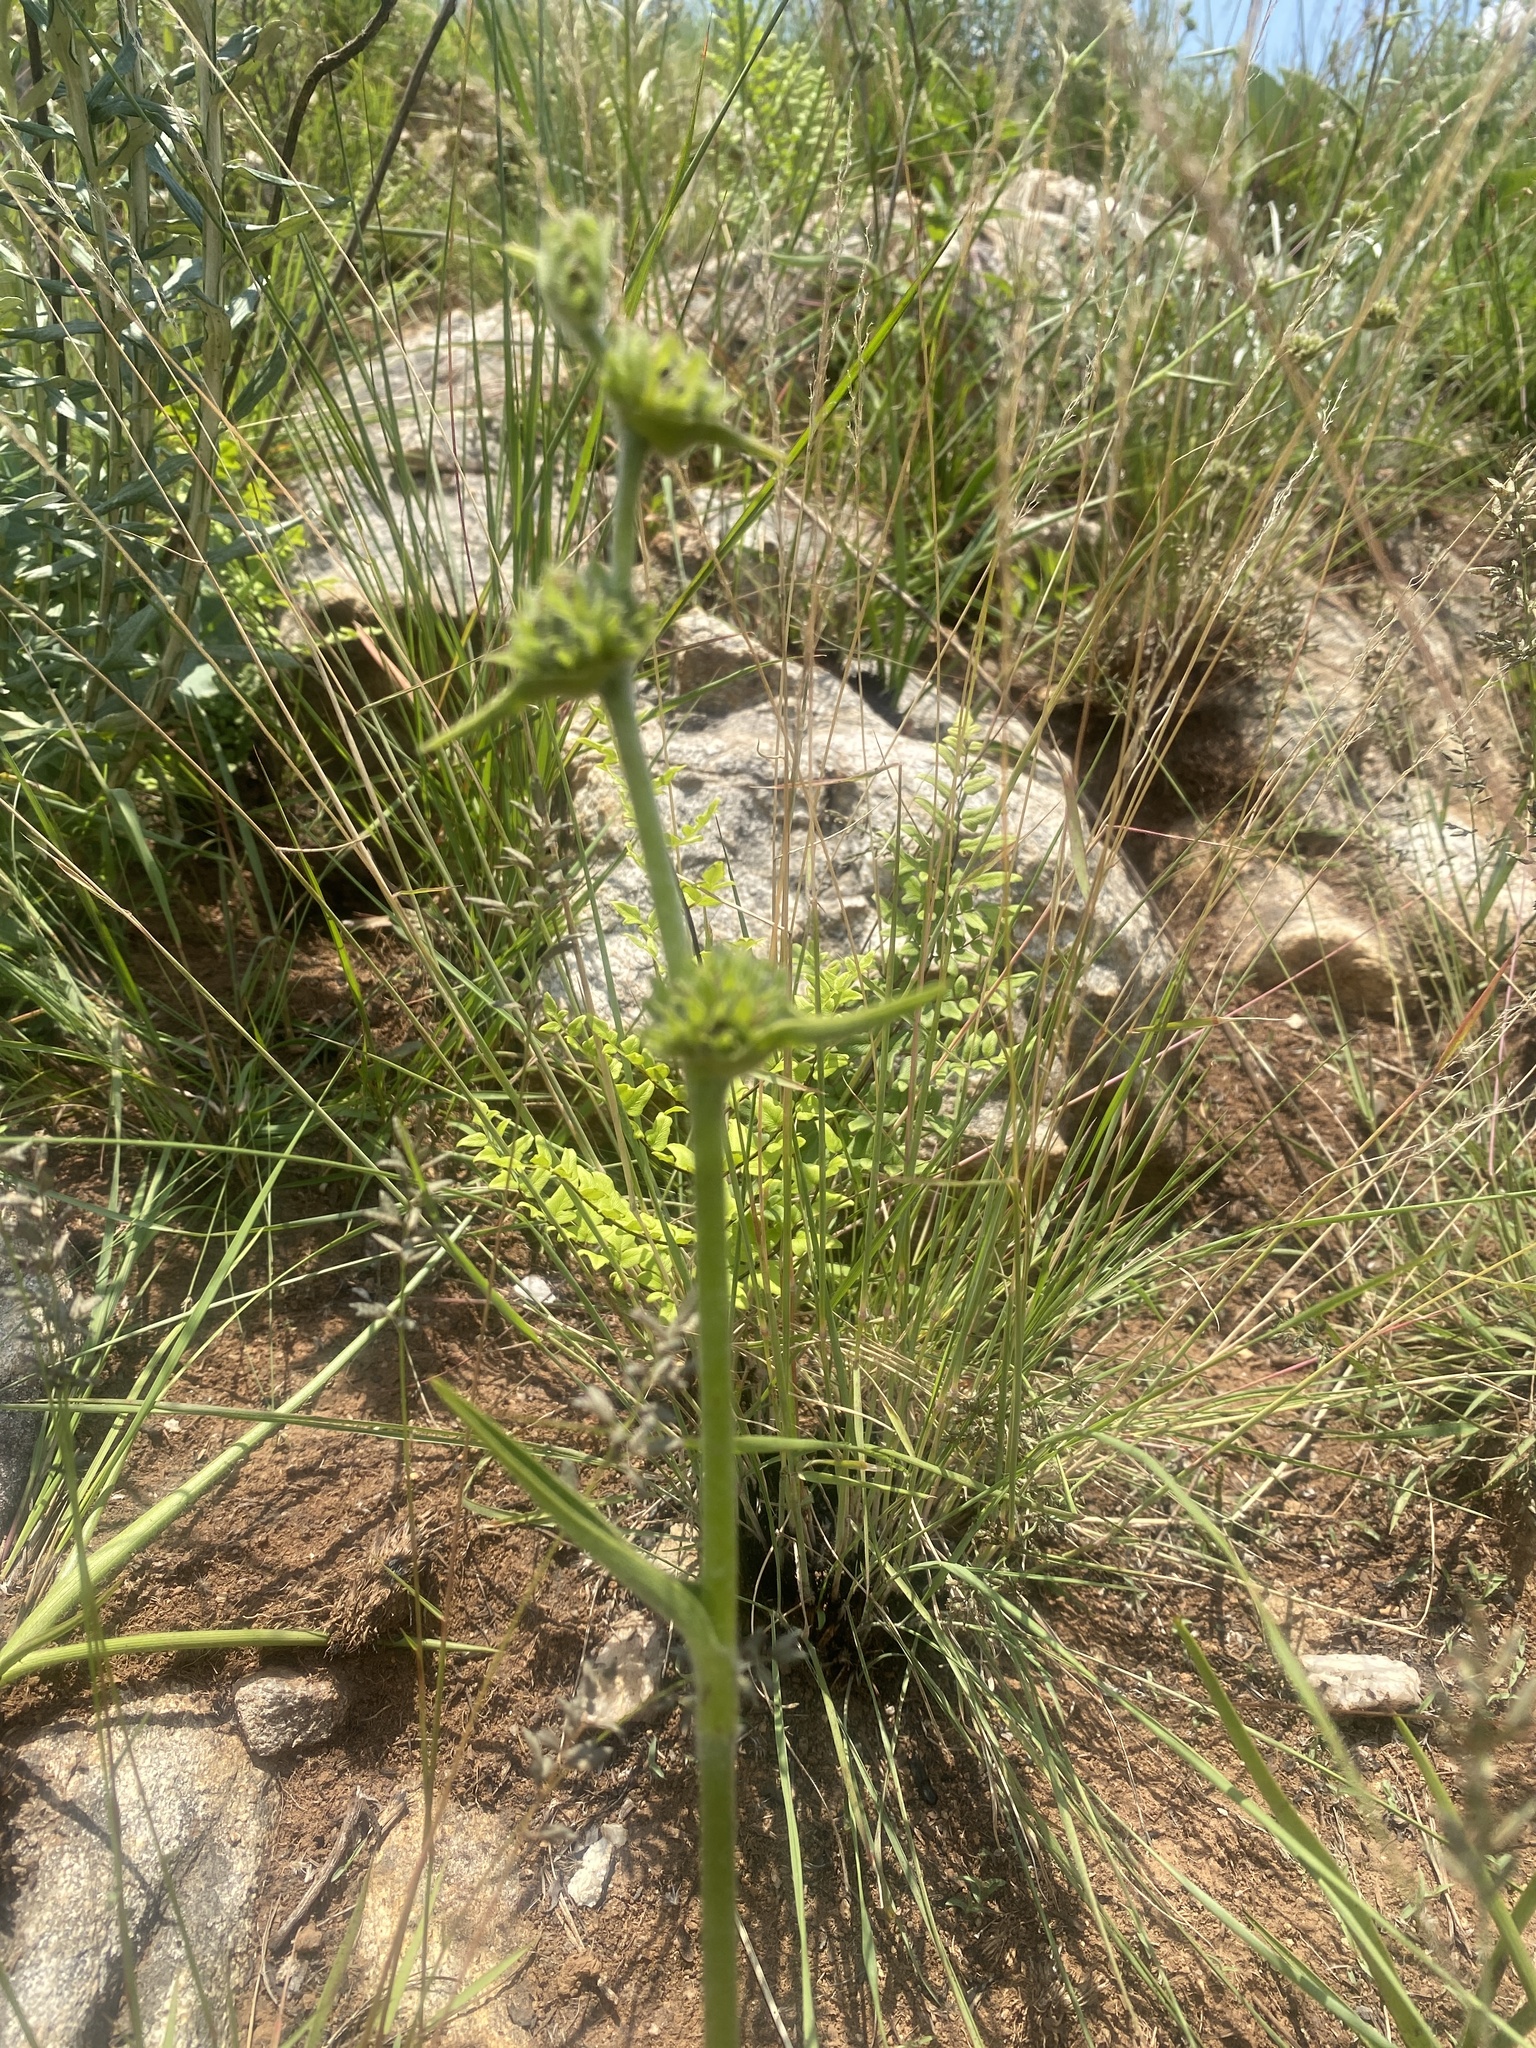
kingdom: Plantae
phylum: Tracheophyta
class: Liliopsida
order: Commelinales
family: Commelinaceae
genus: Cyanotis
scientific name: Cyanotis speciosa
